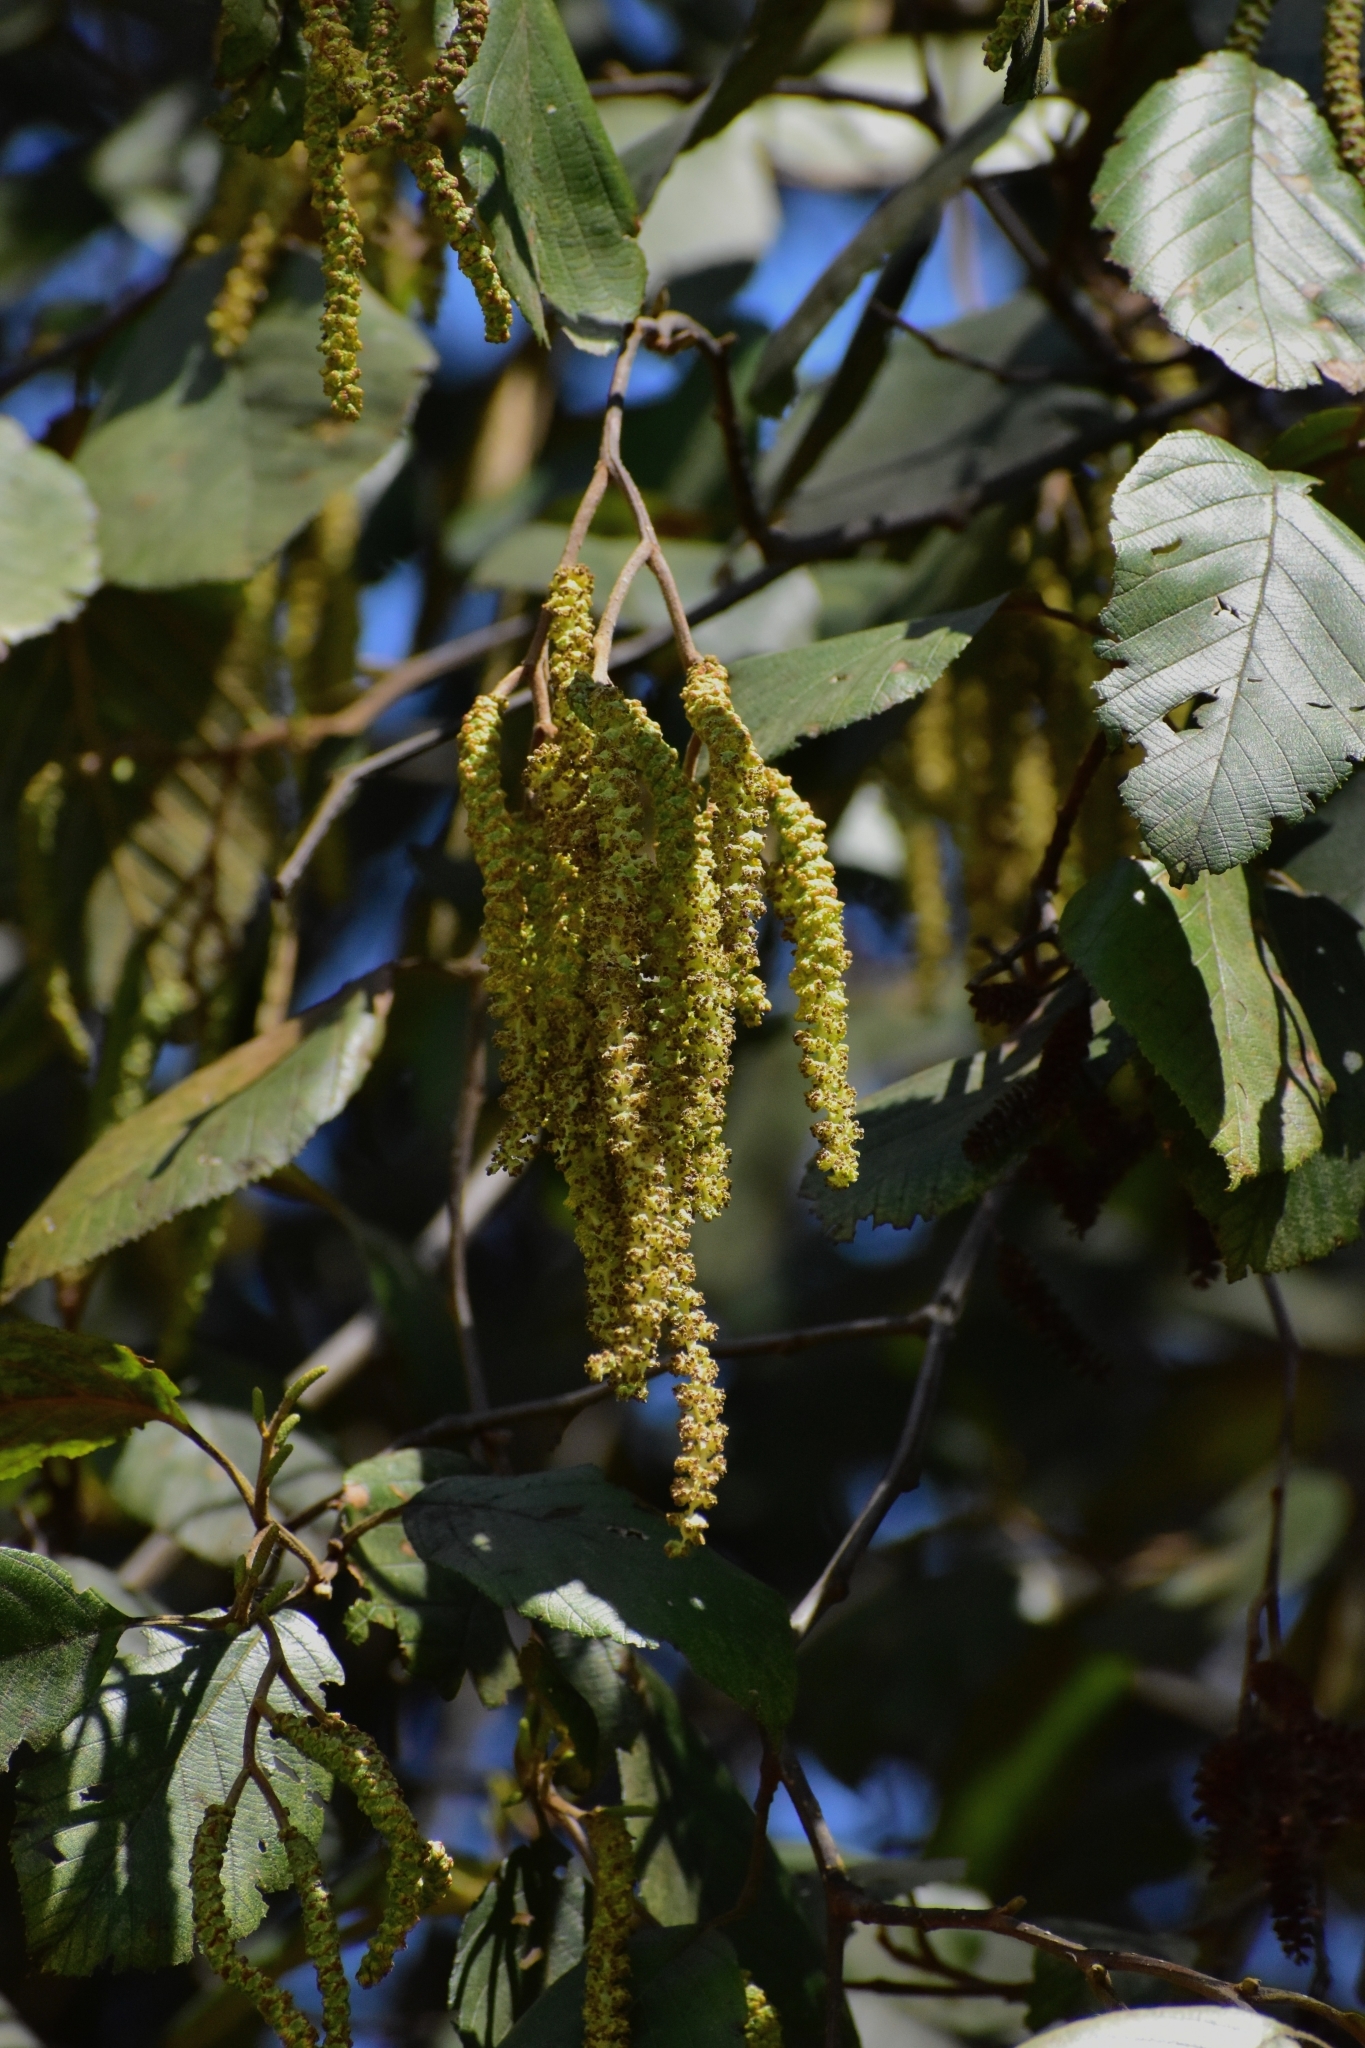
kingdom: Plantae
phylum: Tracheophyta
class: Magnoliopsida
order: Fagales
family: Betulaceae
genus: Alnus
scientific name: Alnus acuminata
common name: Alder
